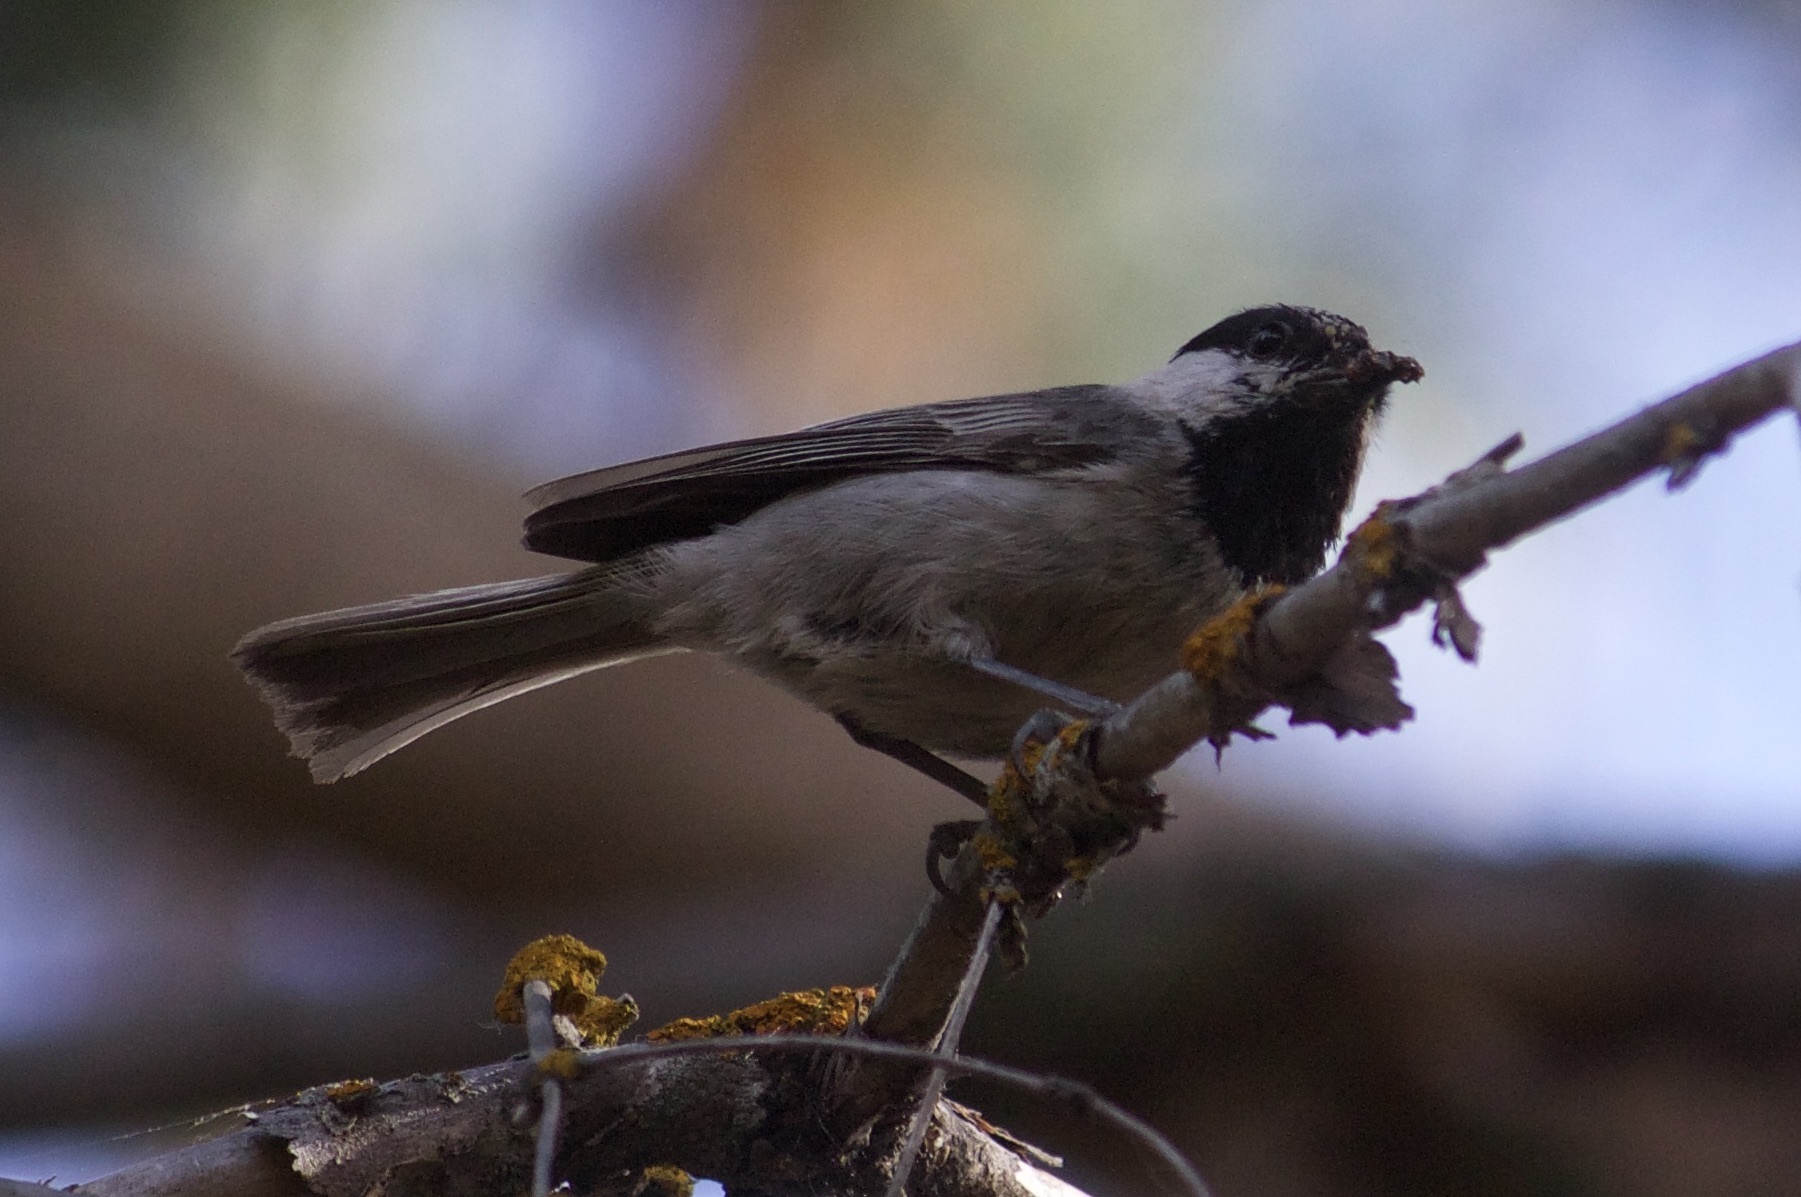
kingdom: Animalia
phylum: Chordata
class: Aves
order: Passeriformes
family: Paridae
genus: Poecile
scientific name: Poecile gambeli
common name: Mountain chickadee
